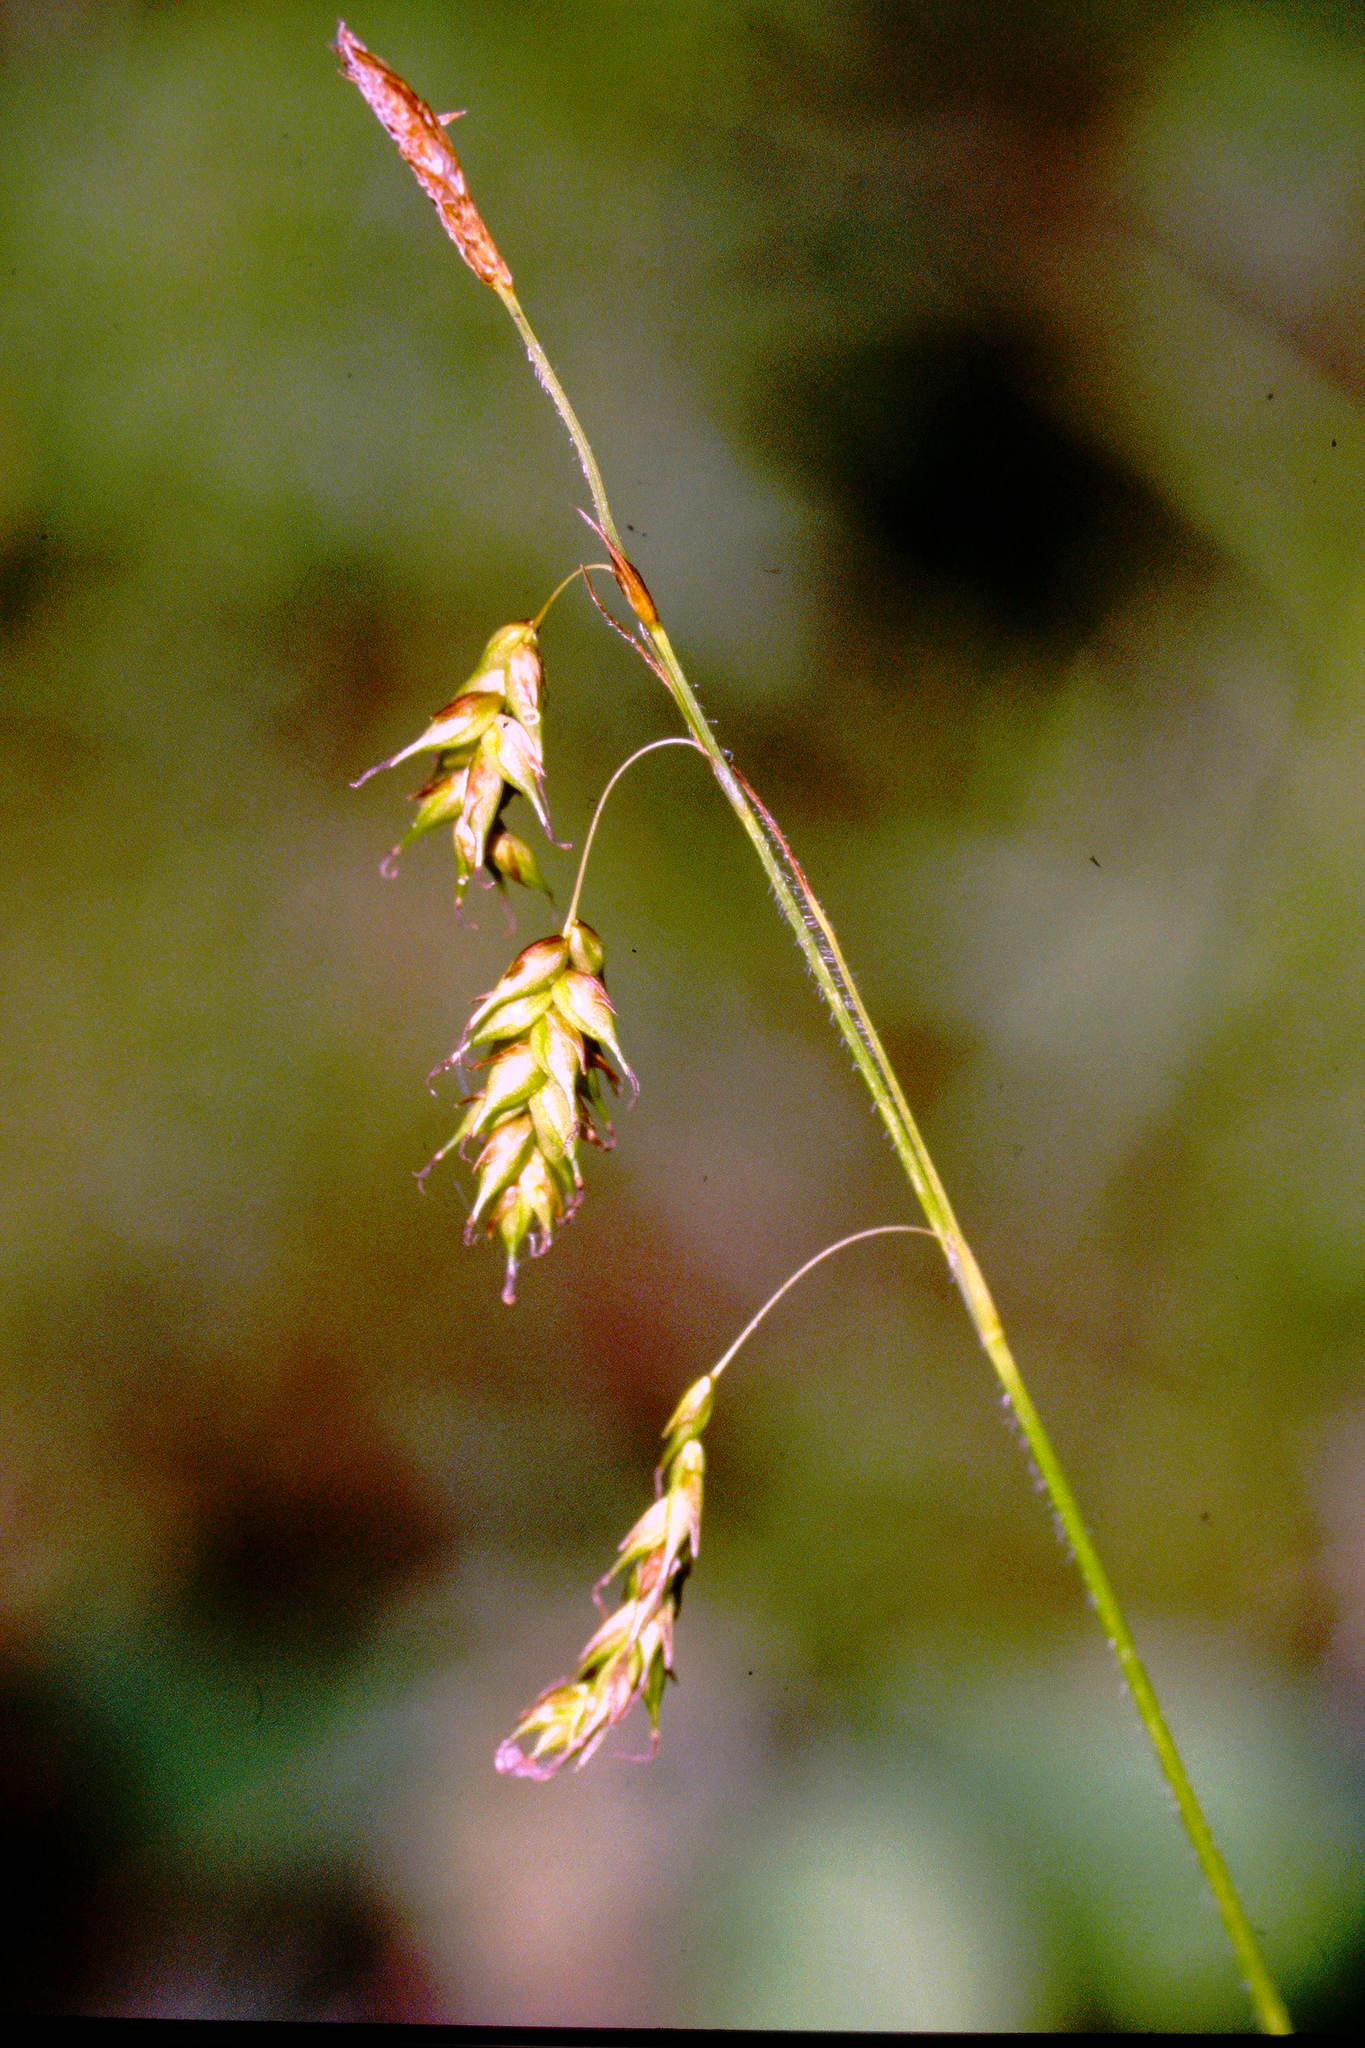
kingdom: Plantae
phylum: Tracheophyta
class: Liliopsida
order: Poales
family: Cyperaceae
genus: Carex
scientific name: Carex castanea
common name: Chestnut sedge
